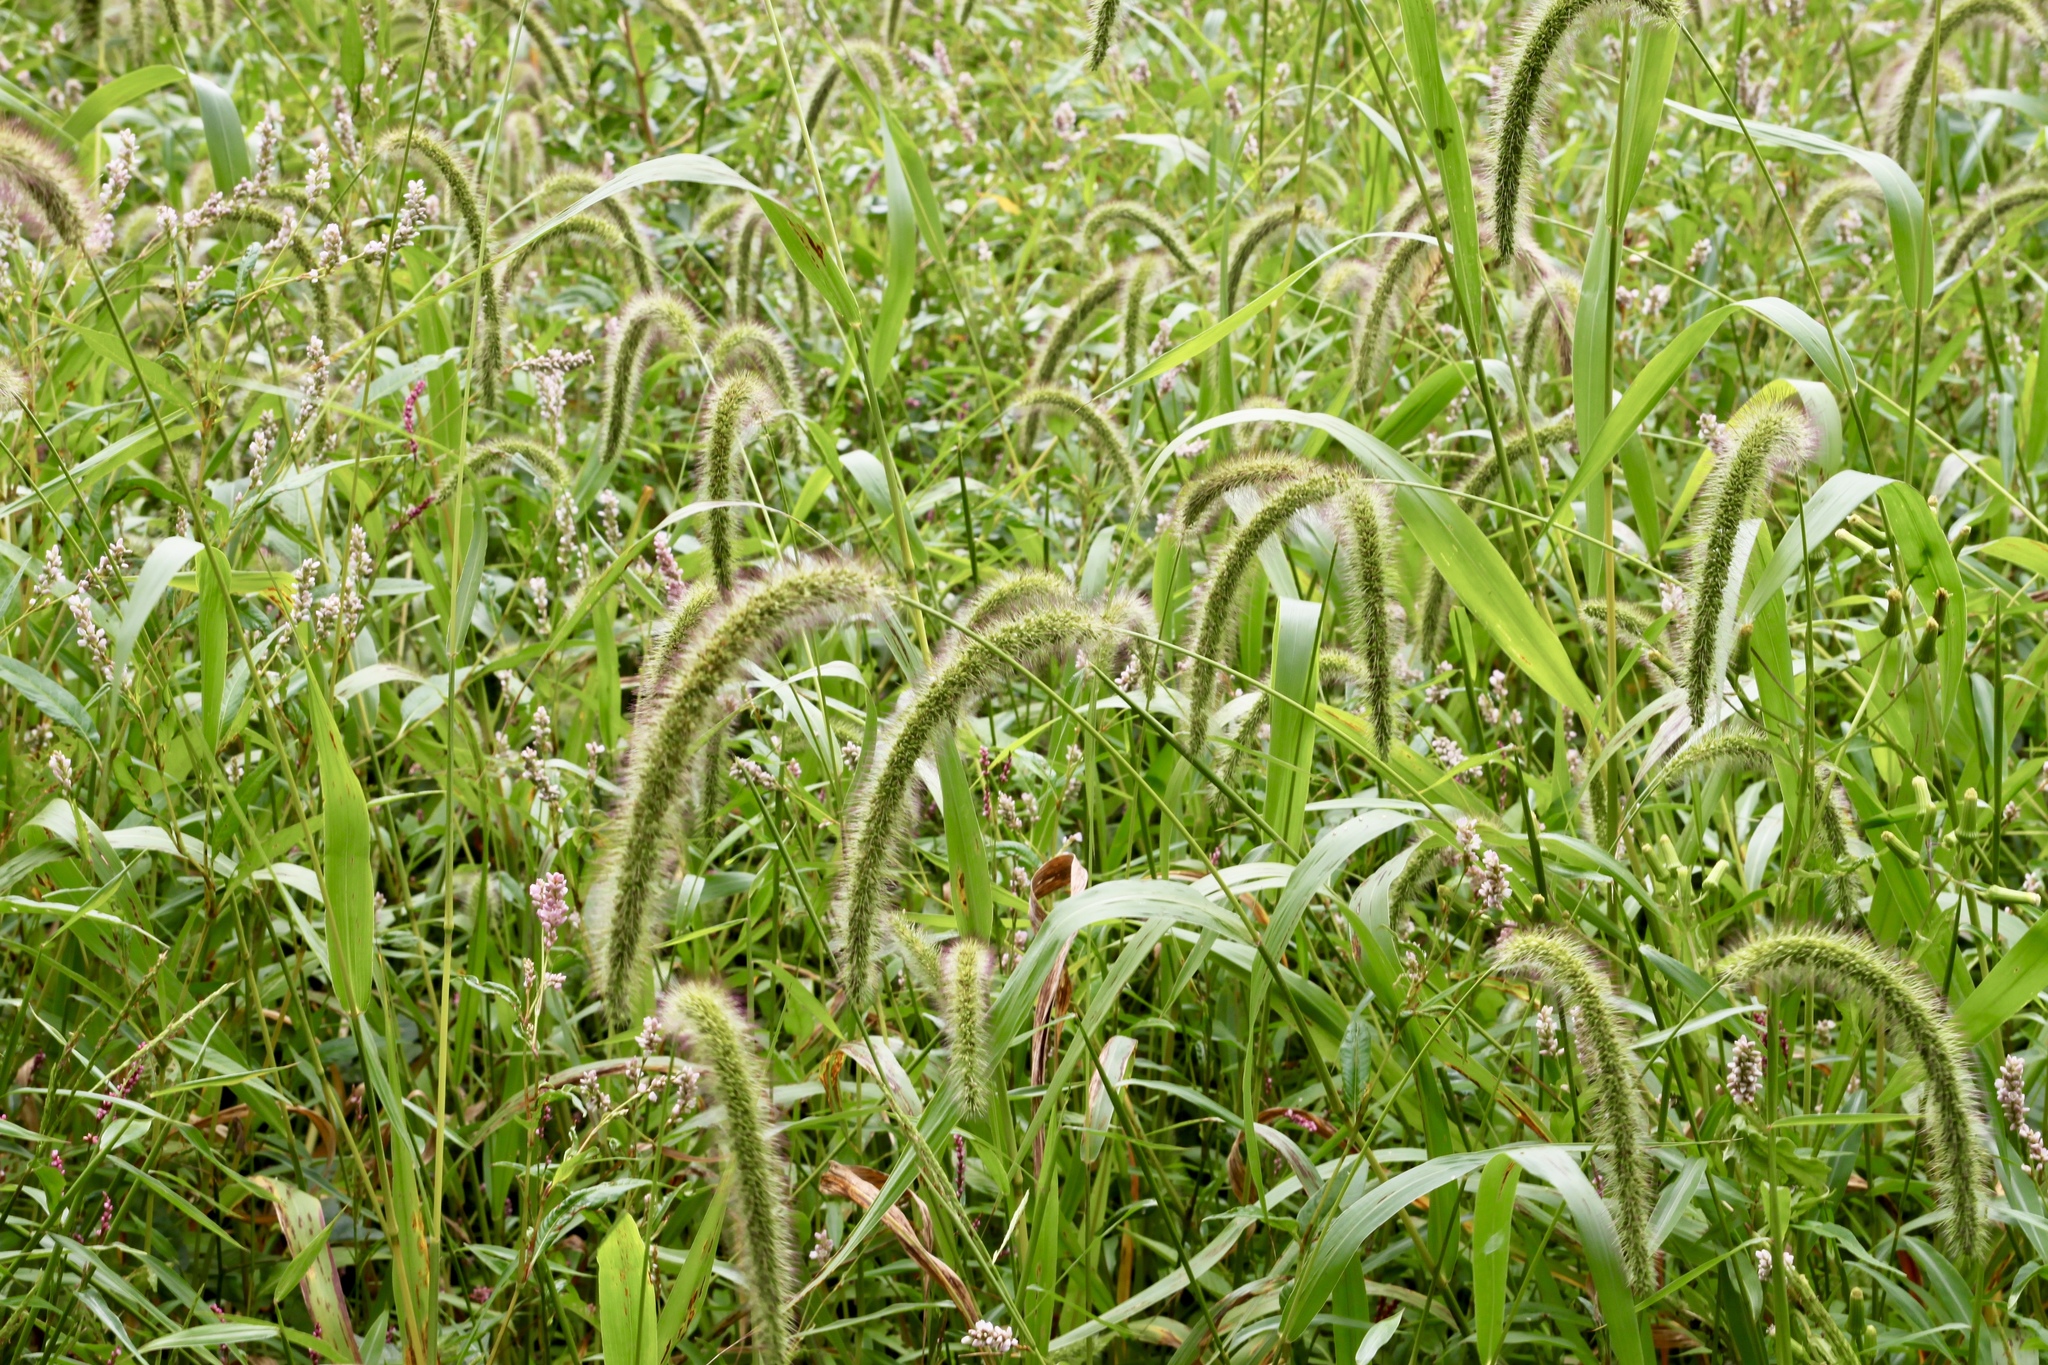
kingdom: Plantae
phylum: Tracheophyta
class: Liliopsida
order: Poales
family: Poaceae
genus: Setaria
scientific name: Setaria faberi
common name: Nodding bristle-grass
